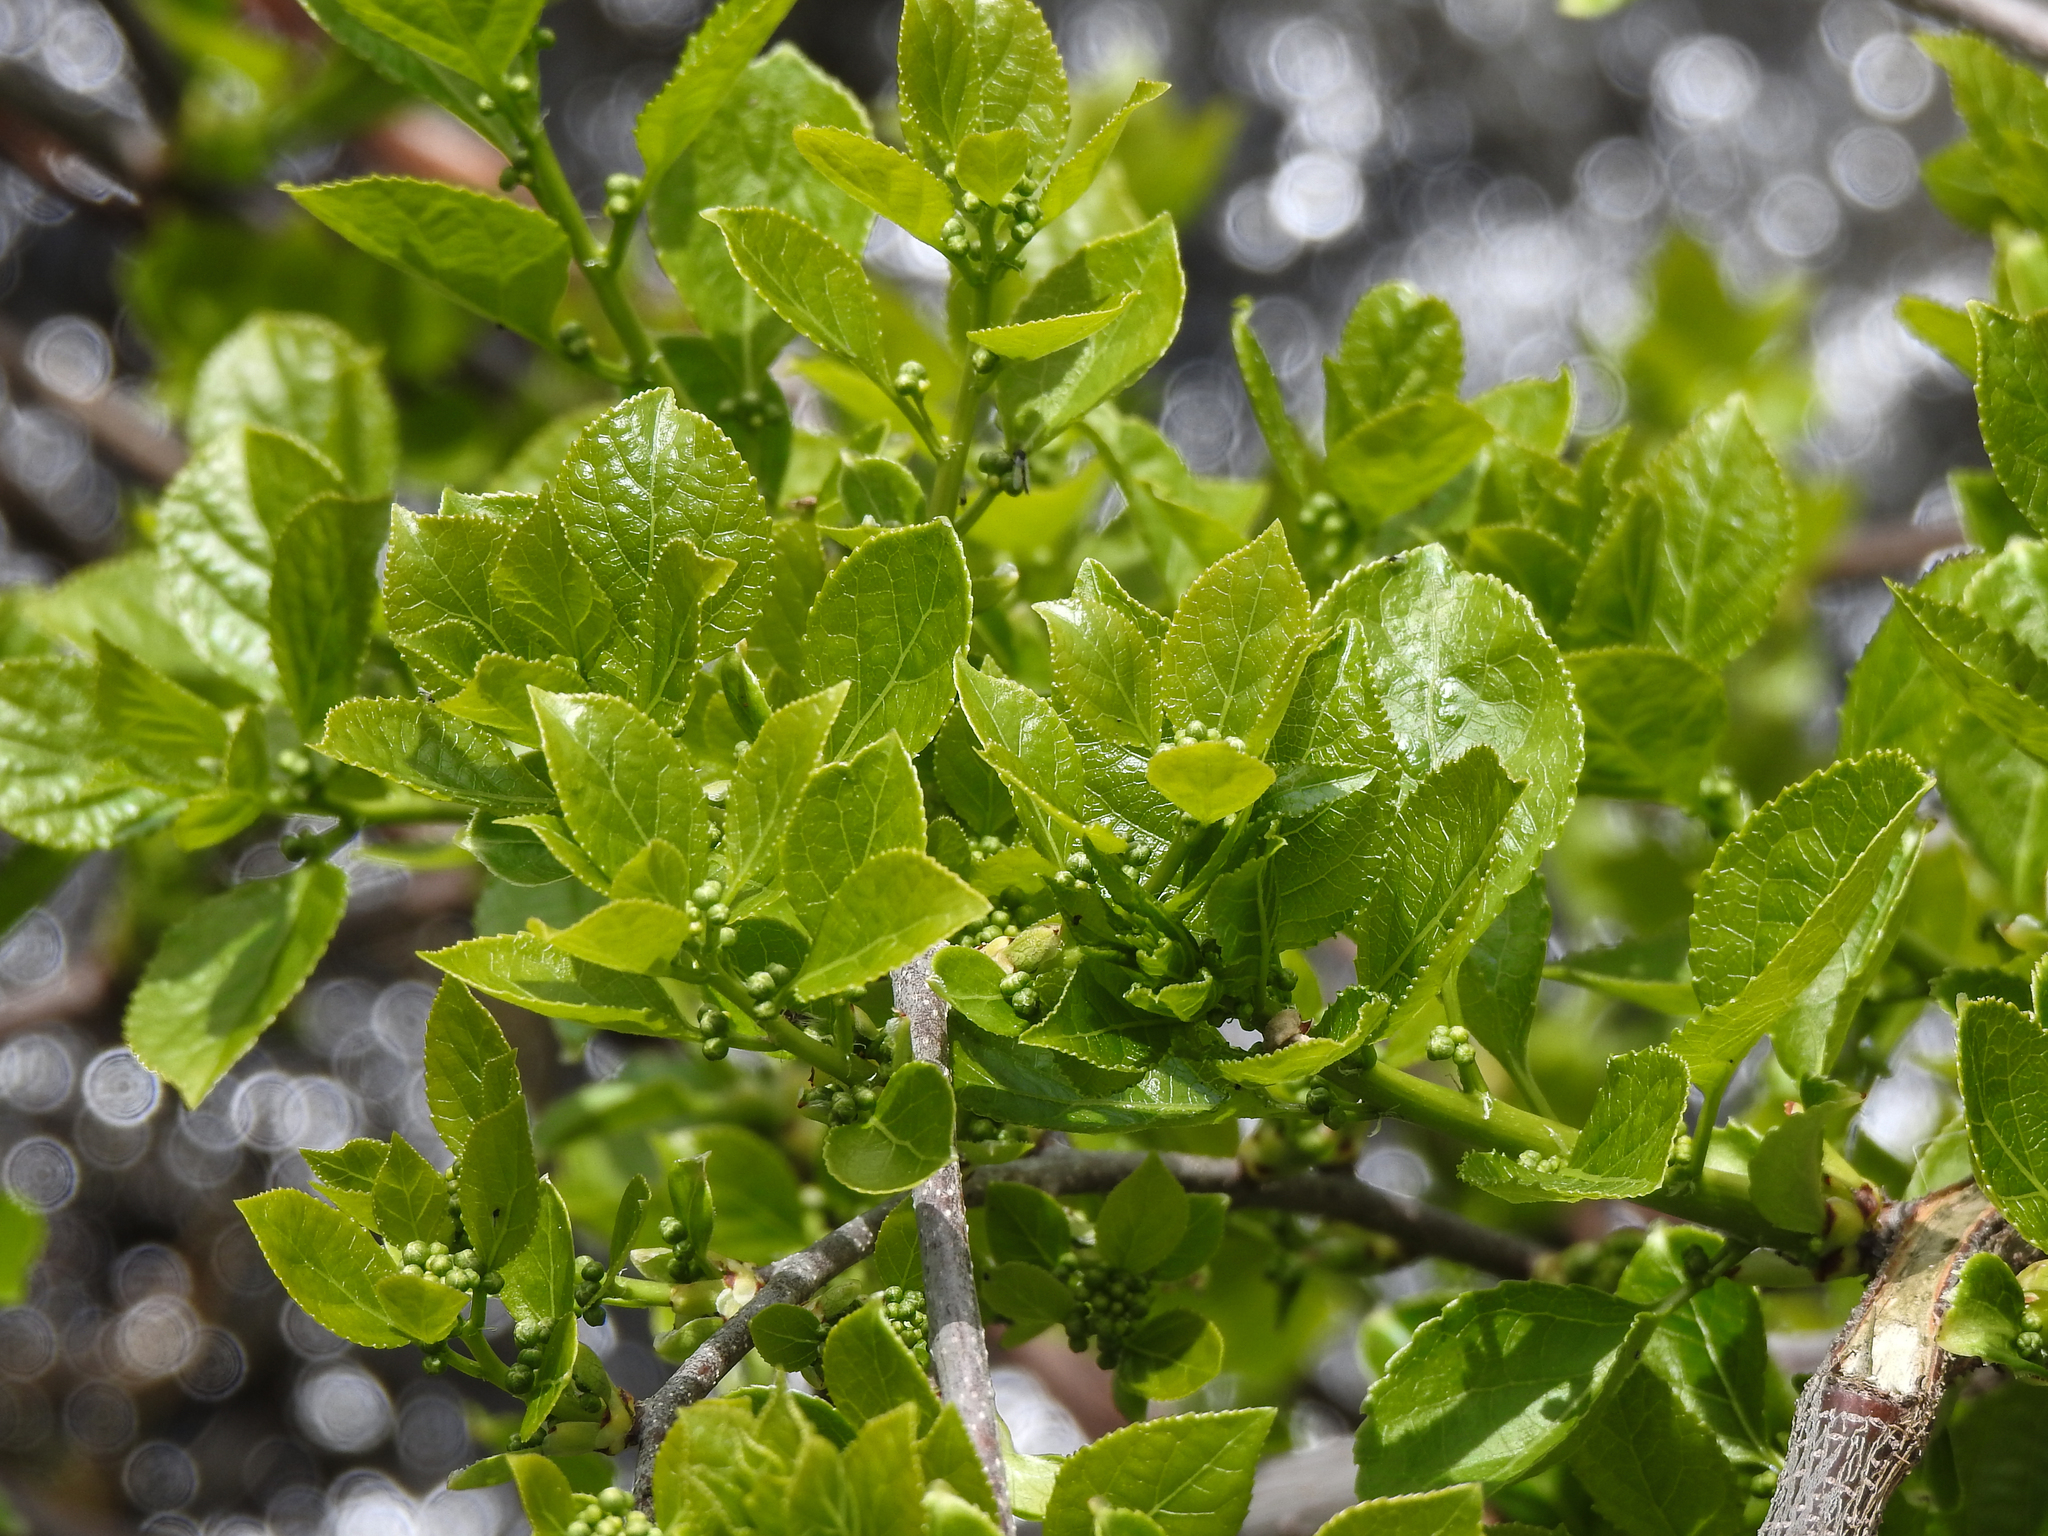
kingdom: Plantae
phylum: Tracheophyta
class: Magnoliopsida
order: Celastrales
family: Celastraceae
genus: Celastrus
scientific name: Celastrus orbiculatus
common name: Oriental bittersweet
